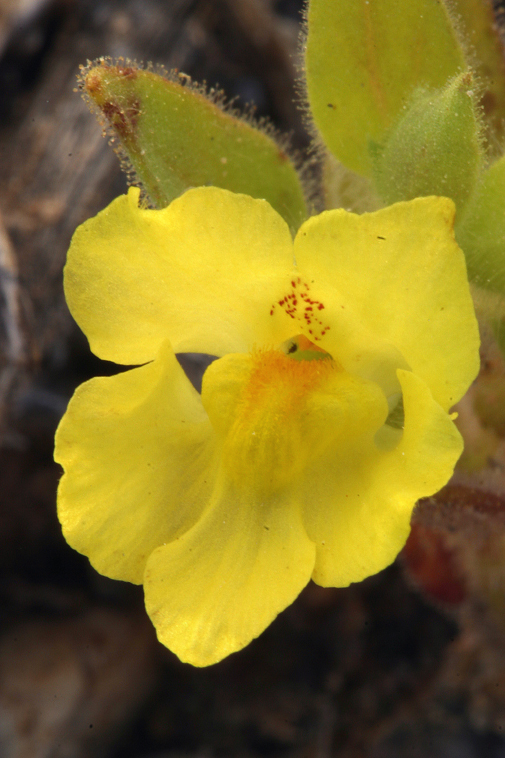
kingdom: Plantae
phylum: Tracheophyta
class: Magnoliopsida
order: Lamiales
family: Plantaginaceae
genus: Mohavea
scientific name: Mohavea breviflora
